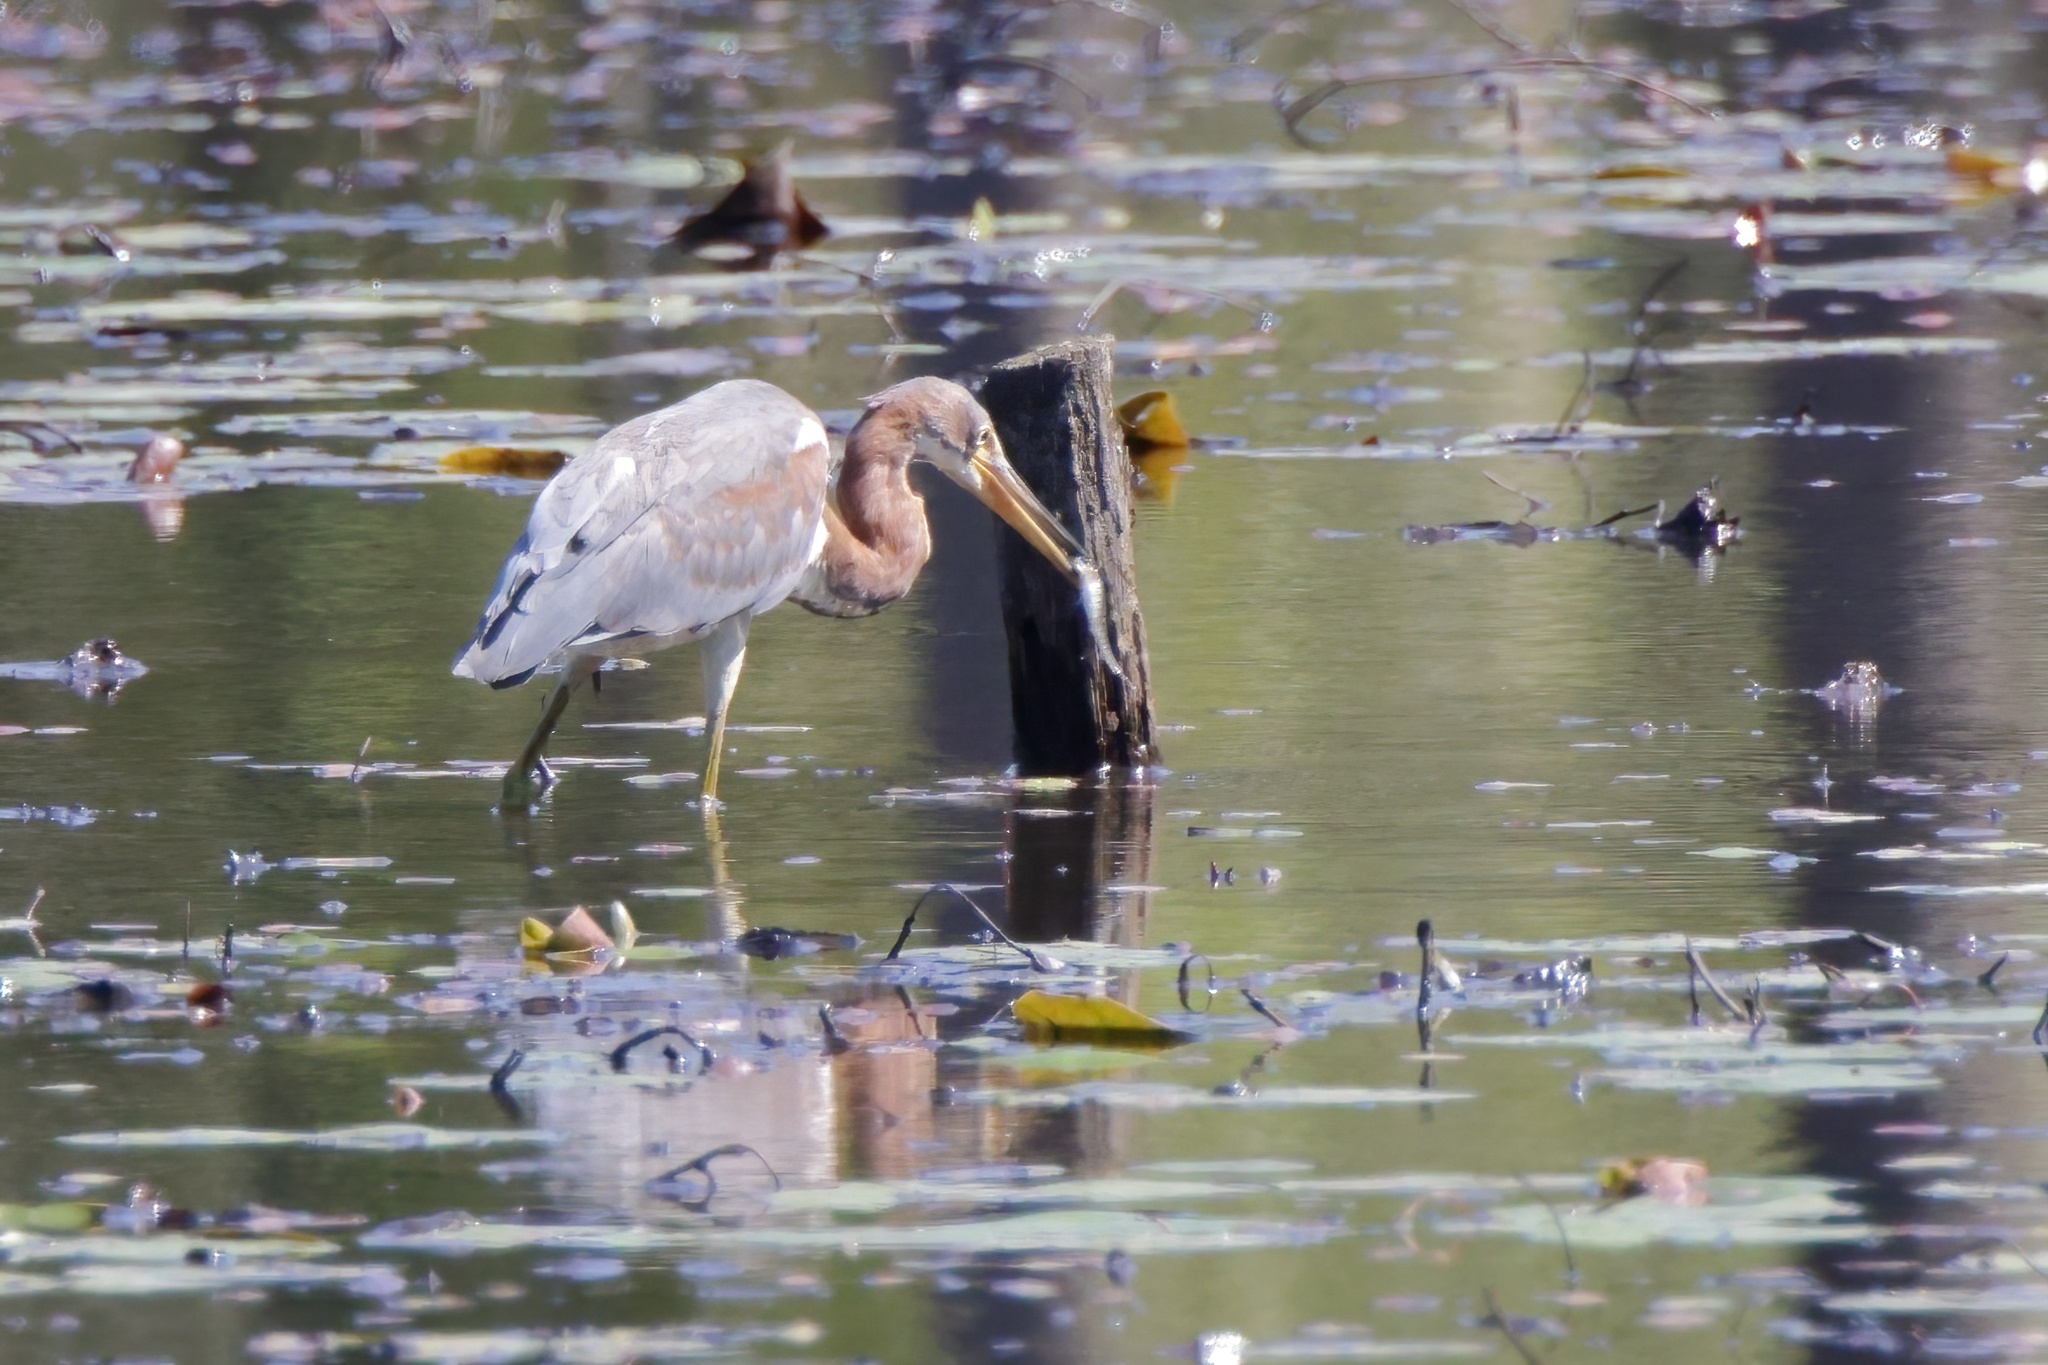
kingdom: Animalia
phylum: Chordata
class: Aves
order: Pelecaniformes
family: Ardeidae
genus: Egretta
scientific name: Egretta tricolor
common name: Tricolored heron
